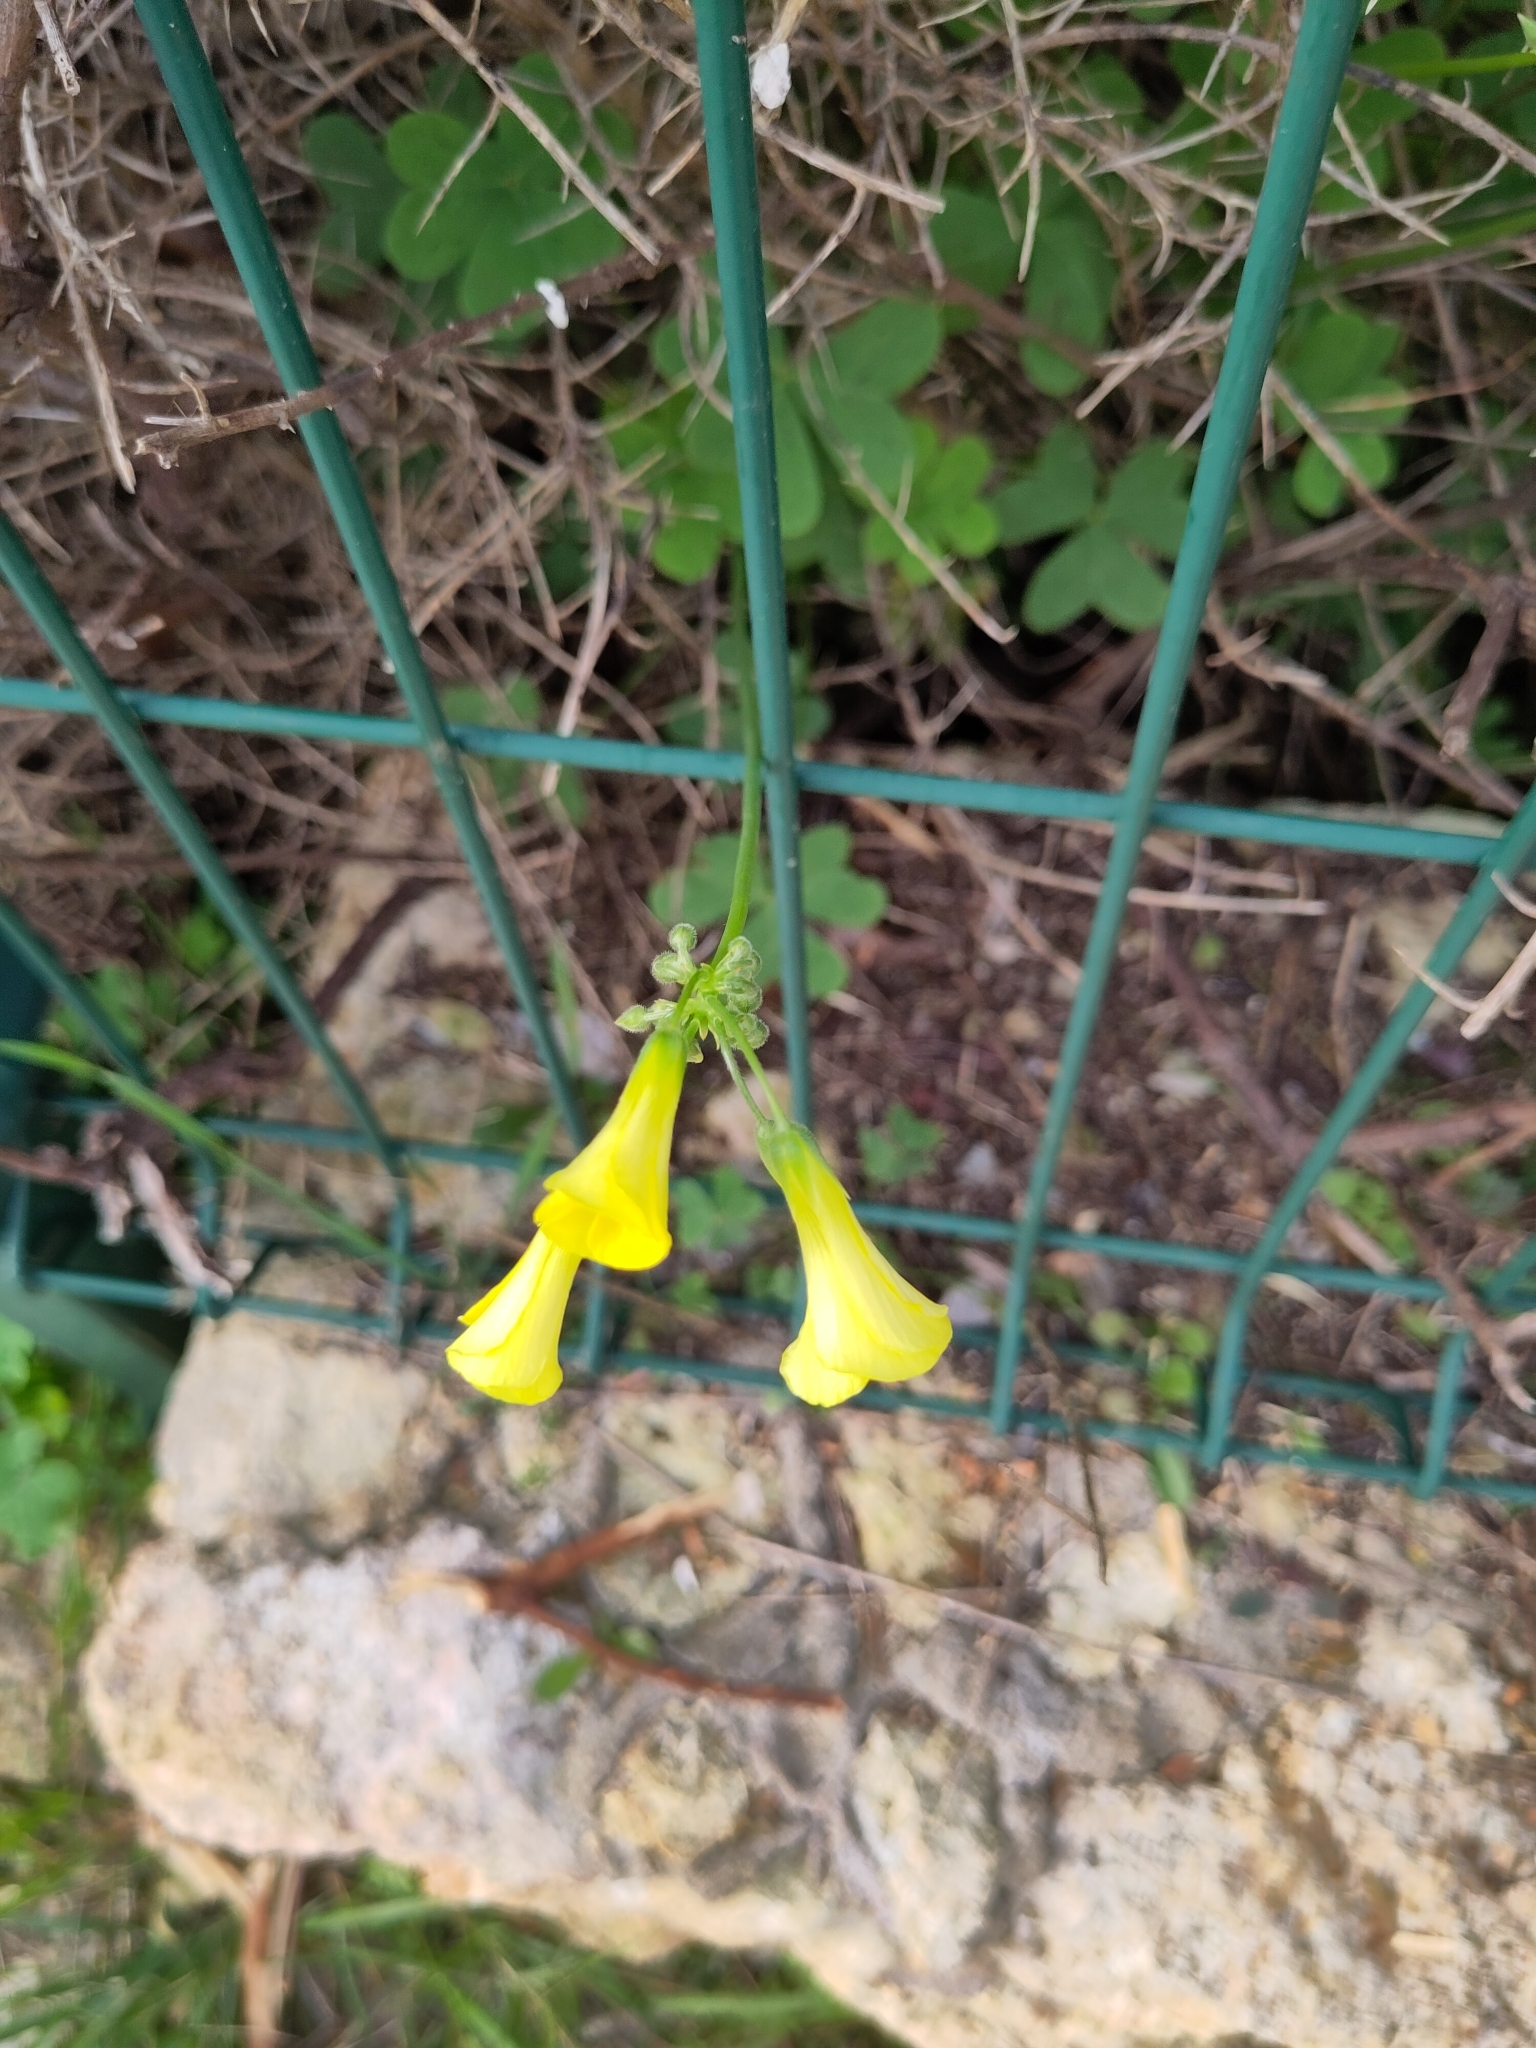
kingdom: Plantae
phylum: Tracheophyta
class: Magnoliopsida
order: Oxalidales
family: Oxalidaceae
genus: Oxalis
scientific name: Oxalis pes-caprae
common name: Bermuda-buttercup
